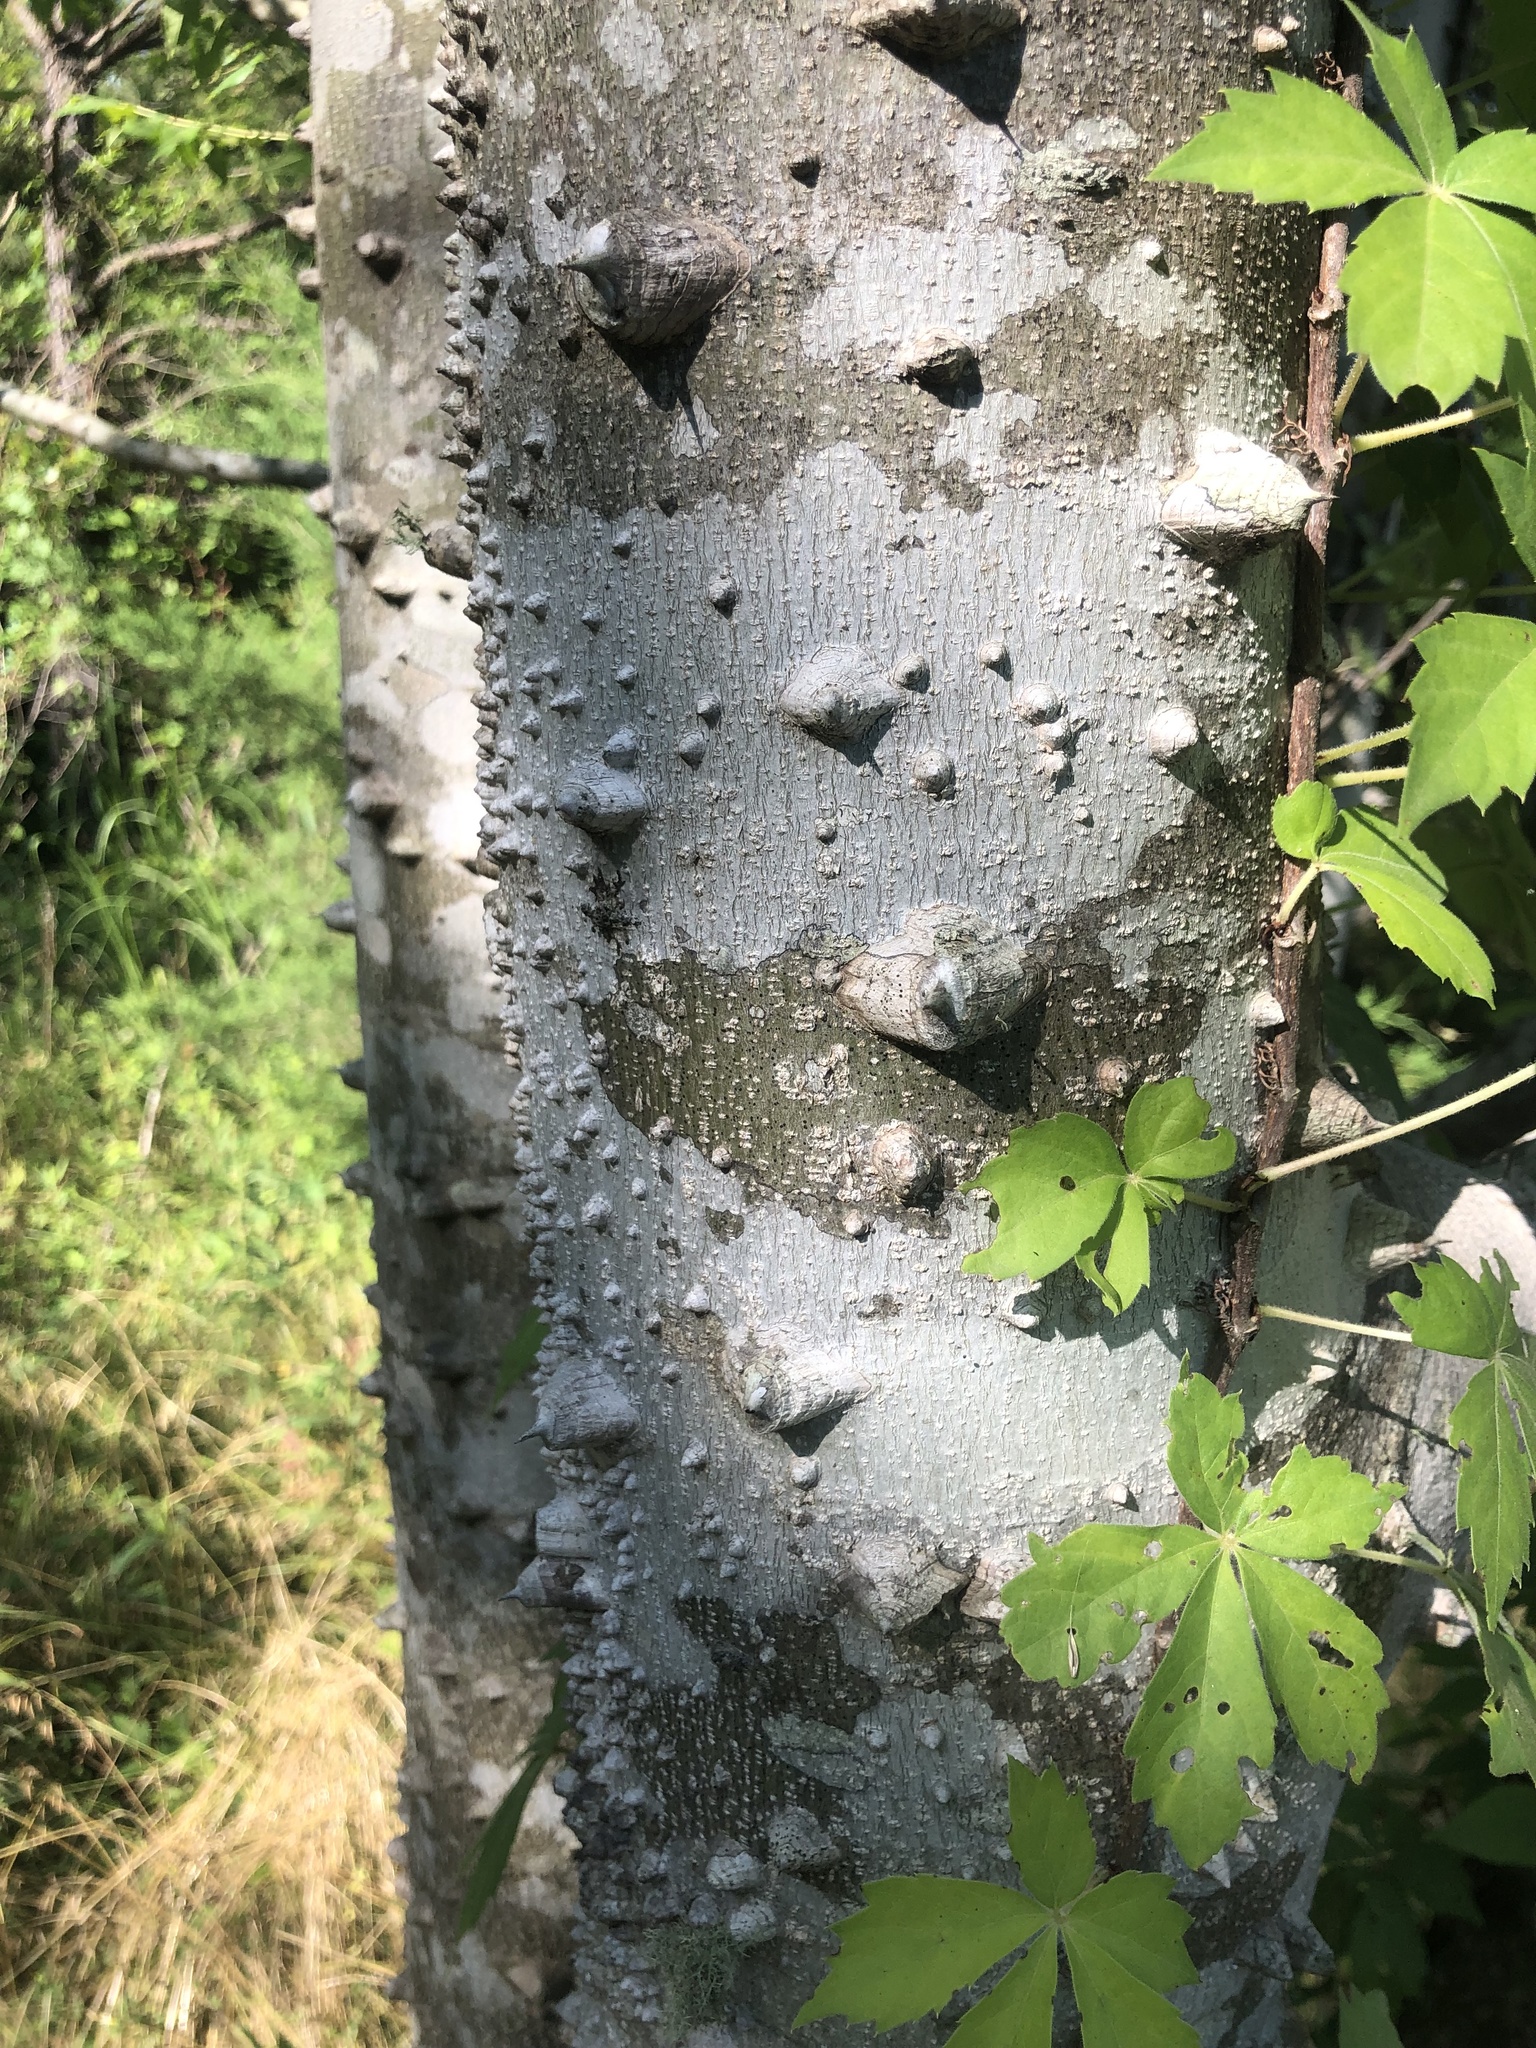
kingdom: Plantae
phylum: Tracheophyta
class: Magnoliopsida
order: Sapindales
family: Rutaceae
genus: Zanthoxylum
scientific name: Zanthoxylum clava-herculis
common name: Hercules'-club
